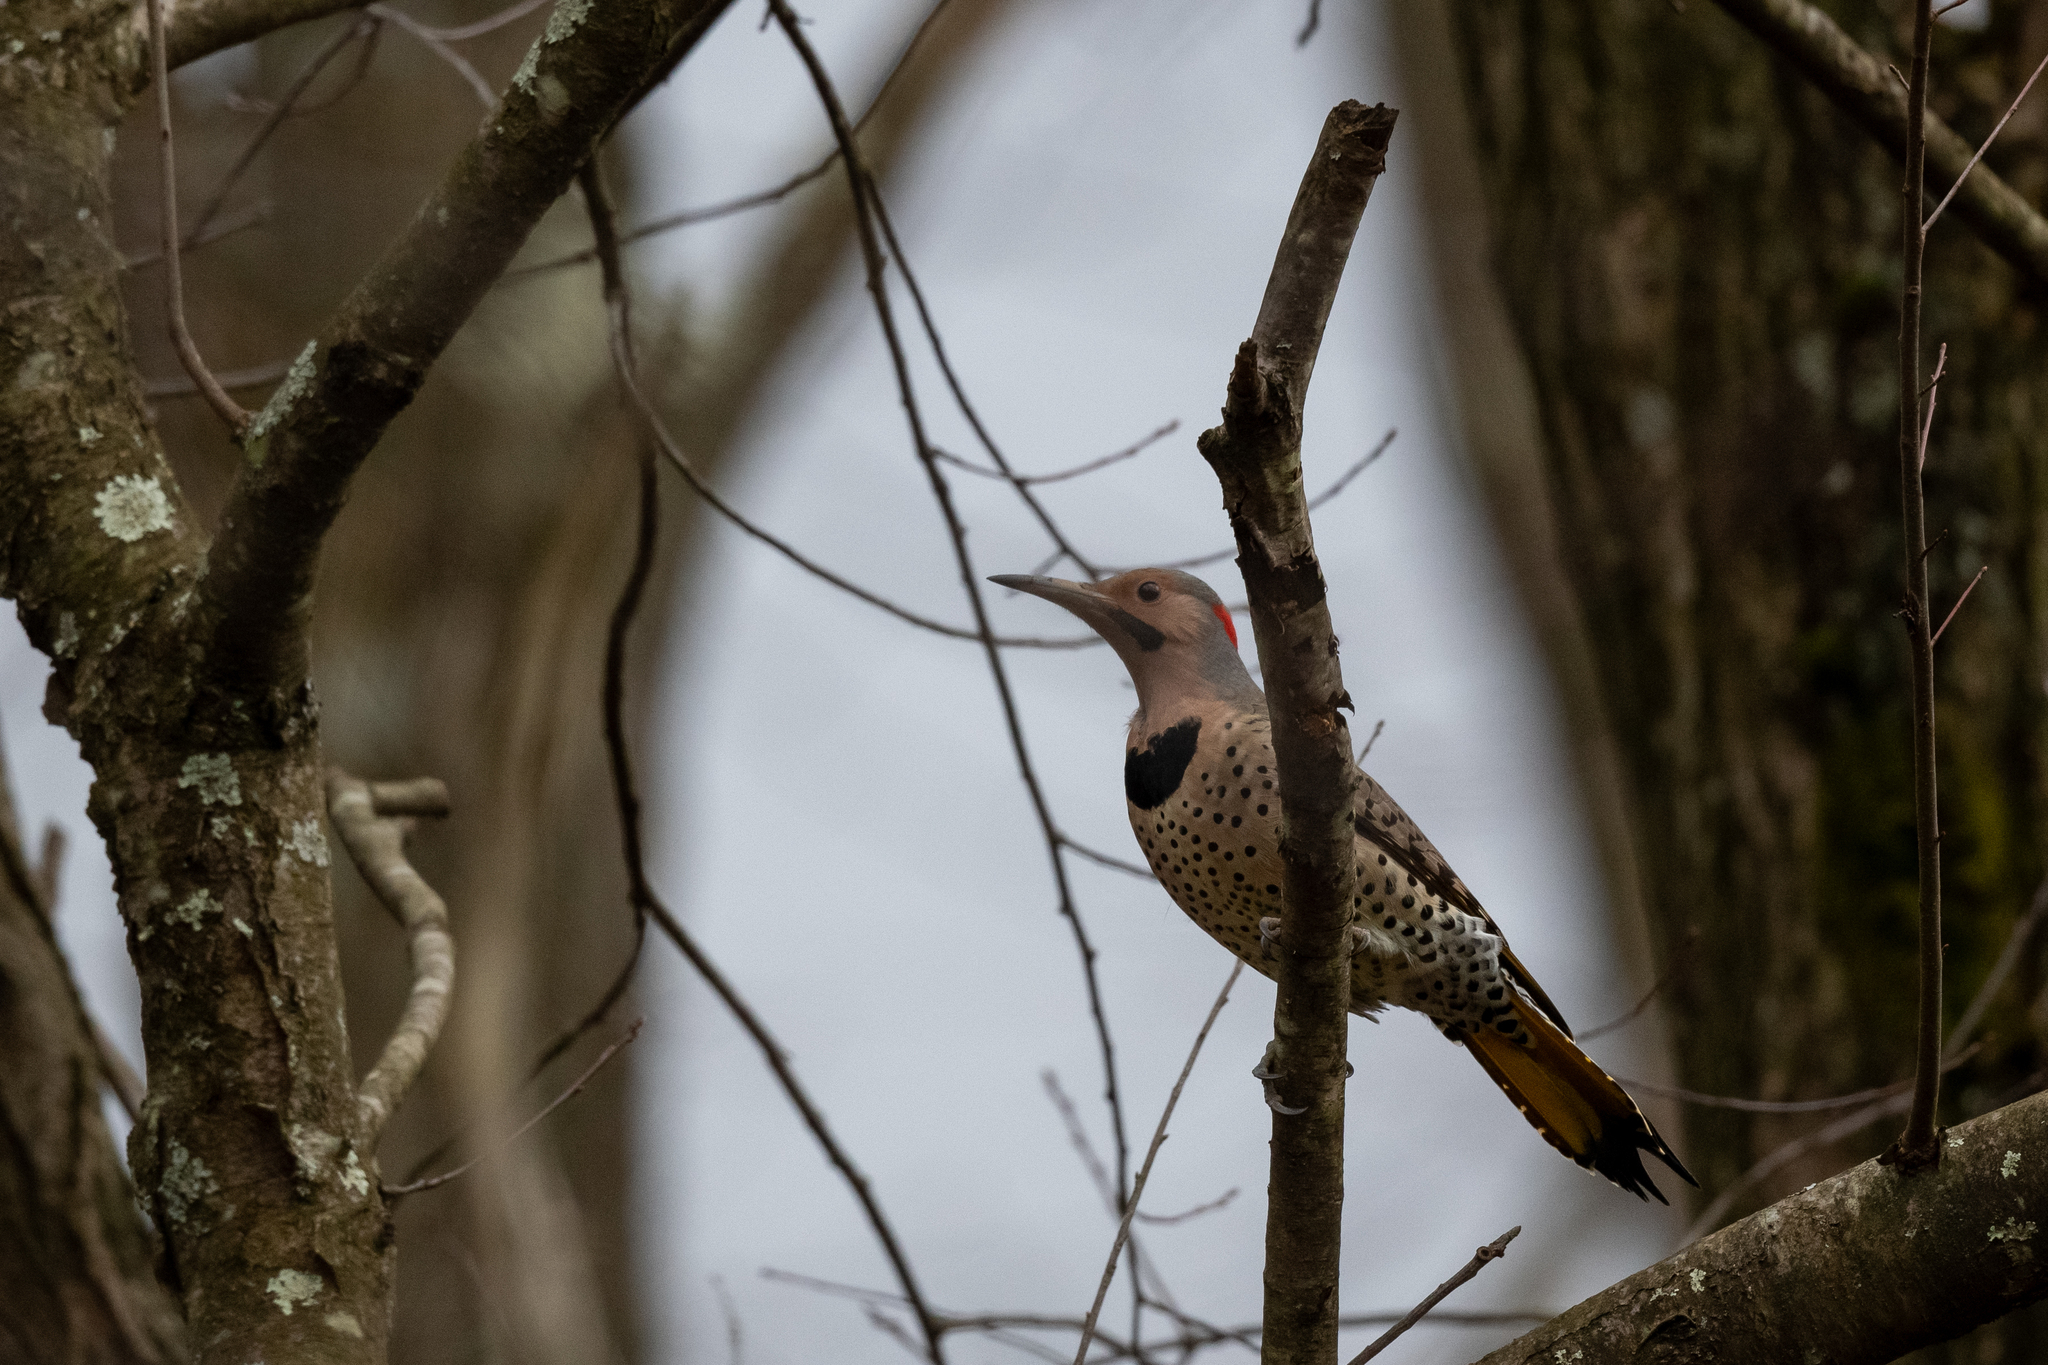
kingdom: Animalia
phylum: Chordata
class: Aves
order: Piciformes
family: Picidae
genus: Colaptes
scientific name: Colaptes auratus
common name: Northern flicker
